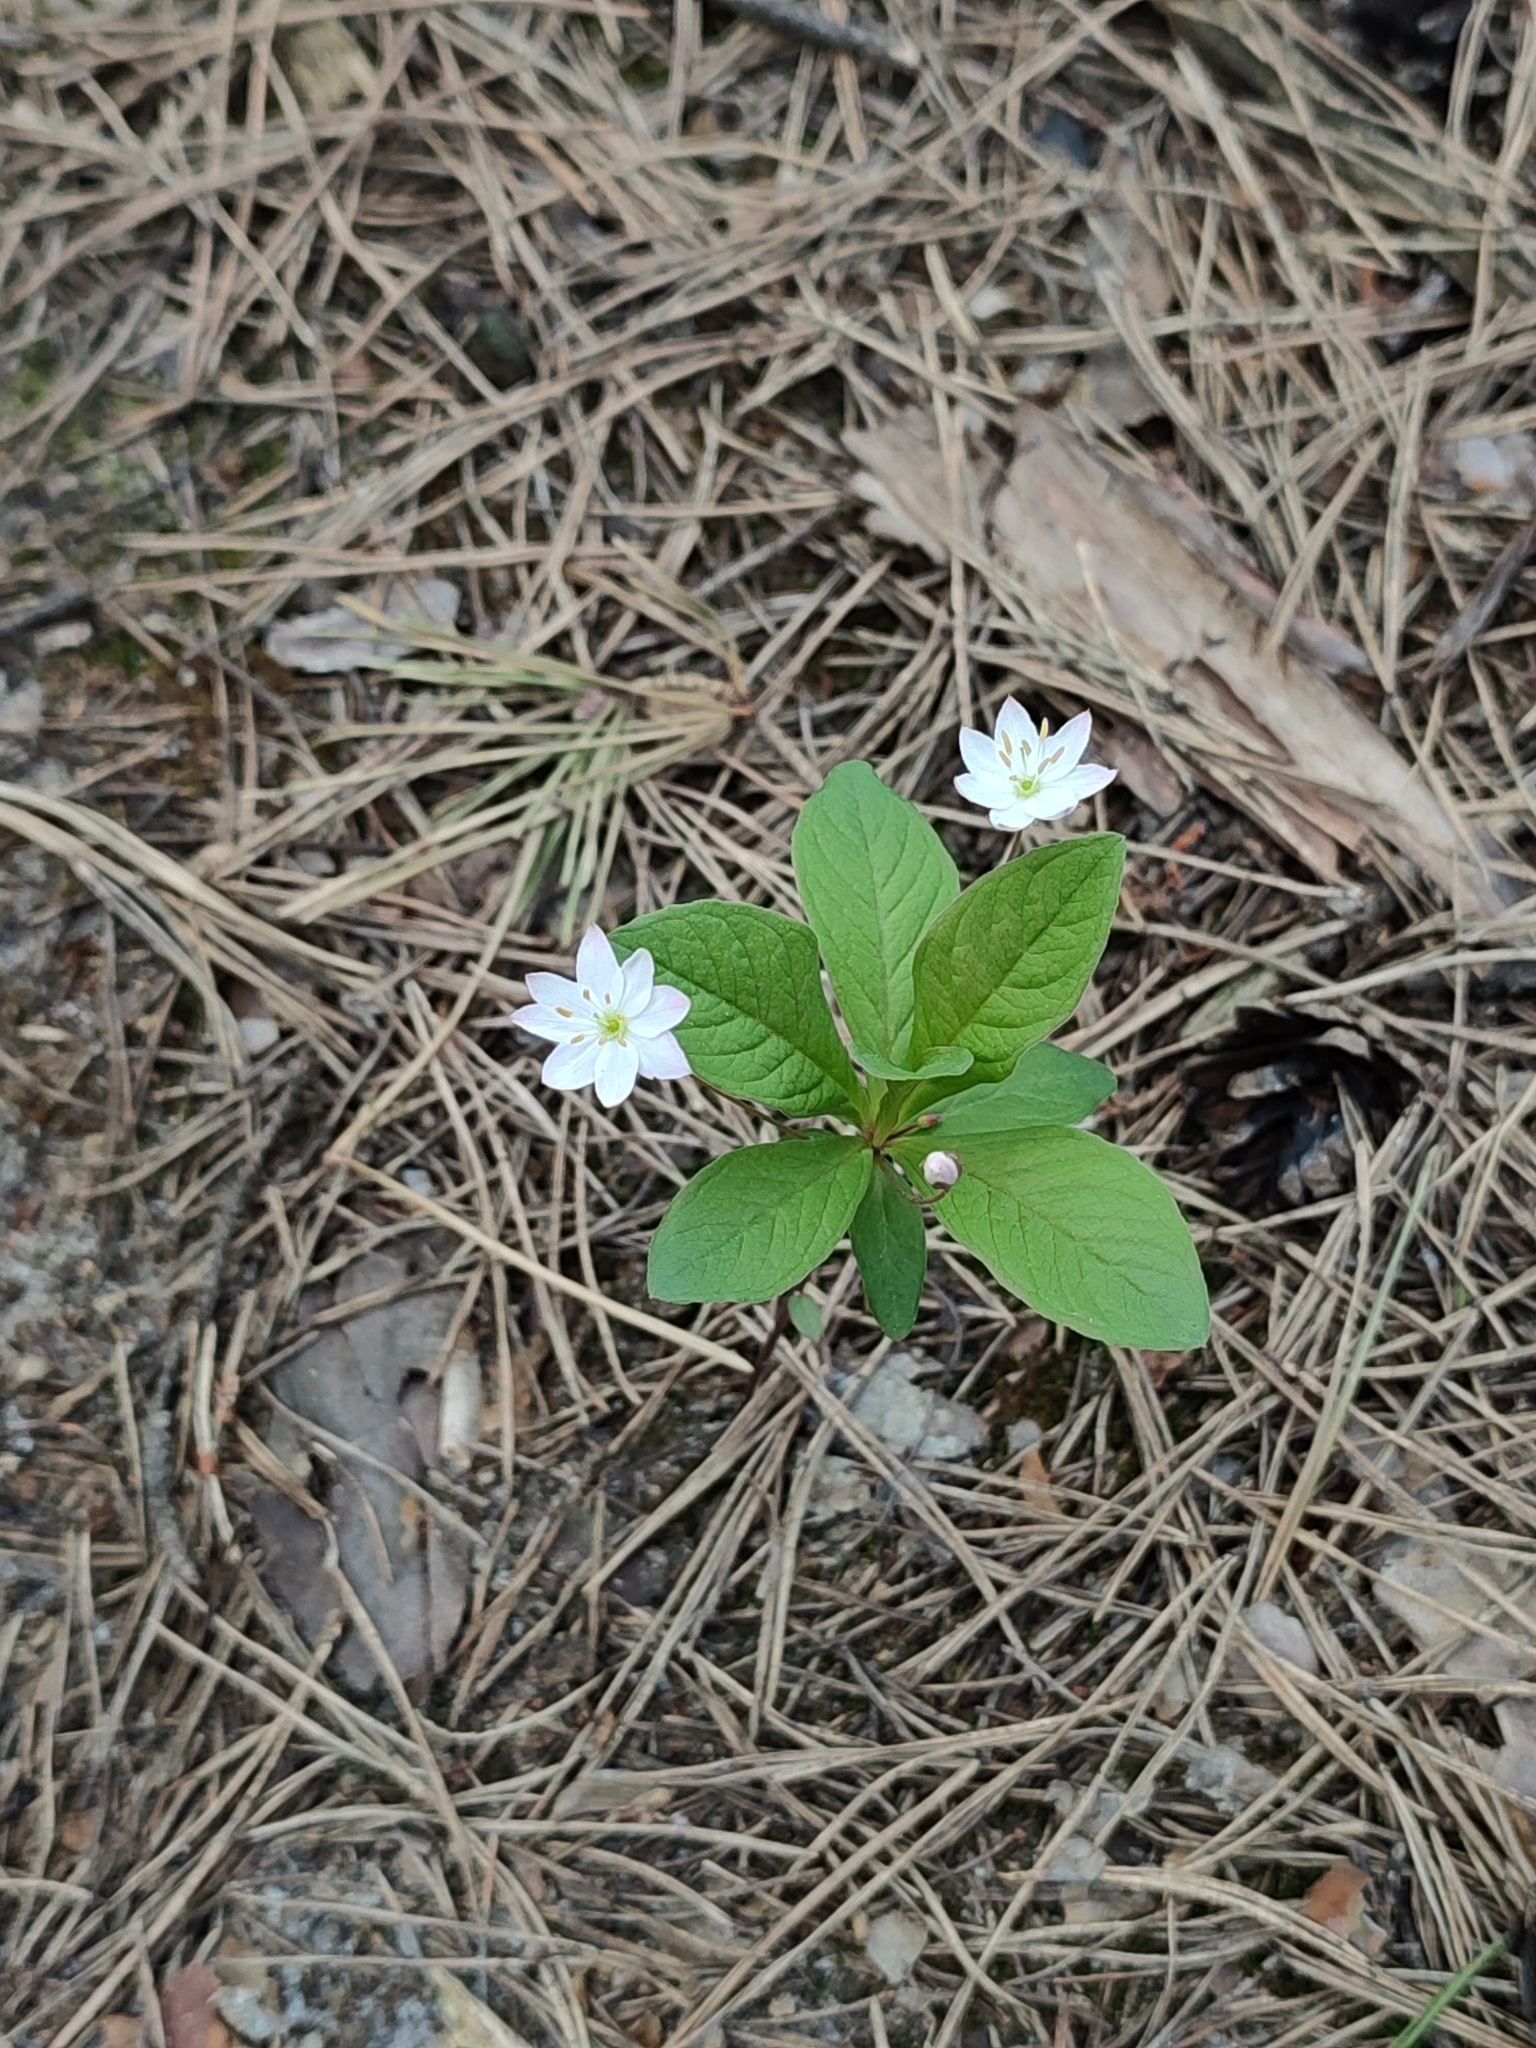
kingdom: Plantae
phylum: Tracheophyta
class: Magnoliopsida
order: Ericales
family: Primulaceae
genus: Lysimachia
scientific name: Lysimachia europaea
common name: Arctic starflower
